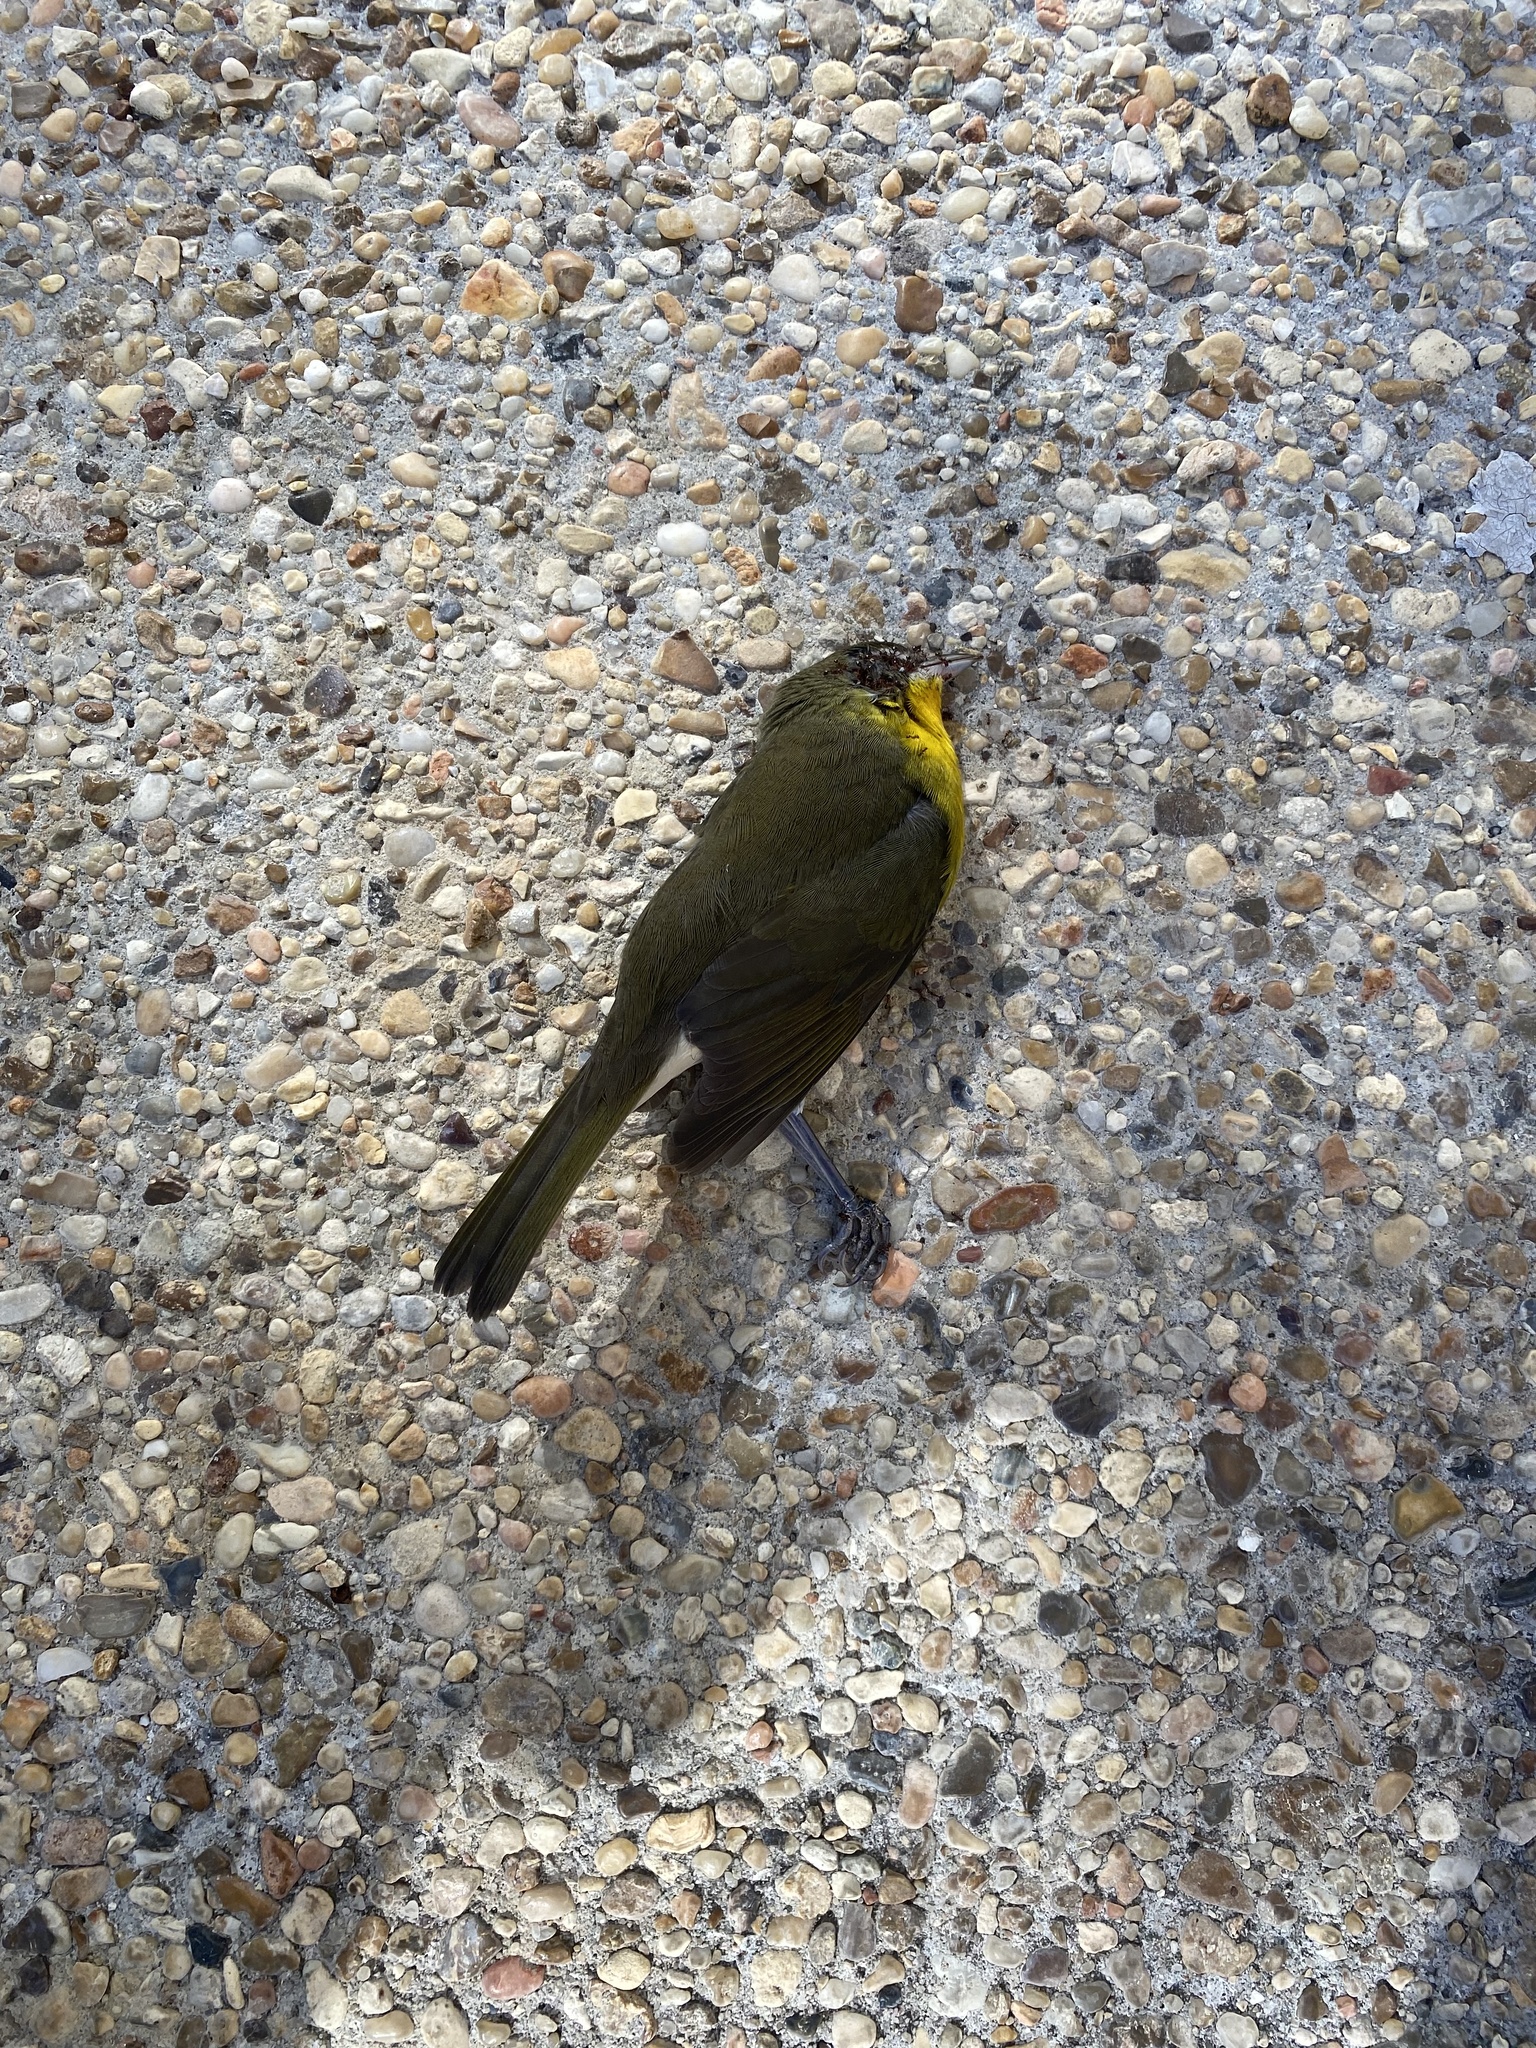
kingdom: Animalia
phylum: Chordata
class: Aves
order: Passeriformes
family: Parulidae
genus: Icteria
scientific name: Icteria virens
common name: Yellow-breasted chat
